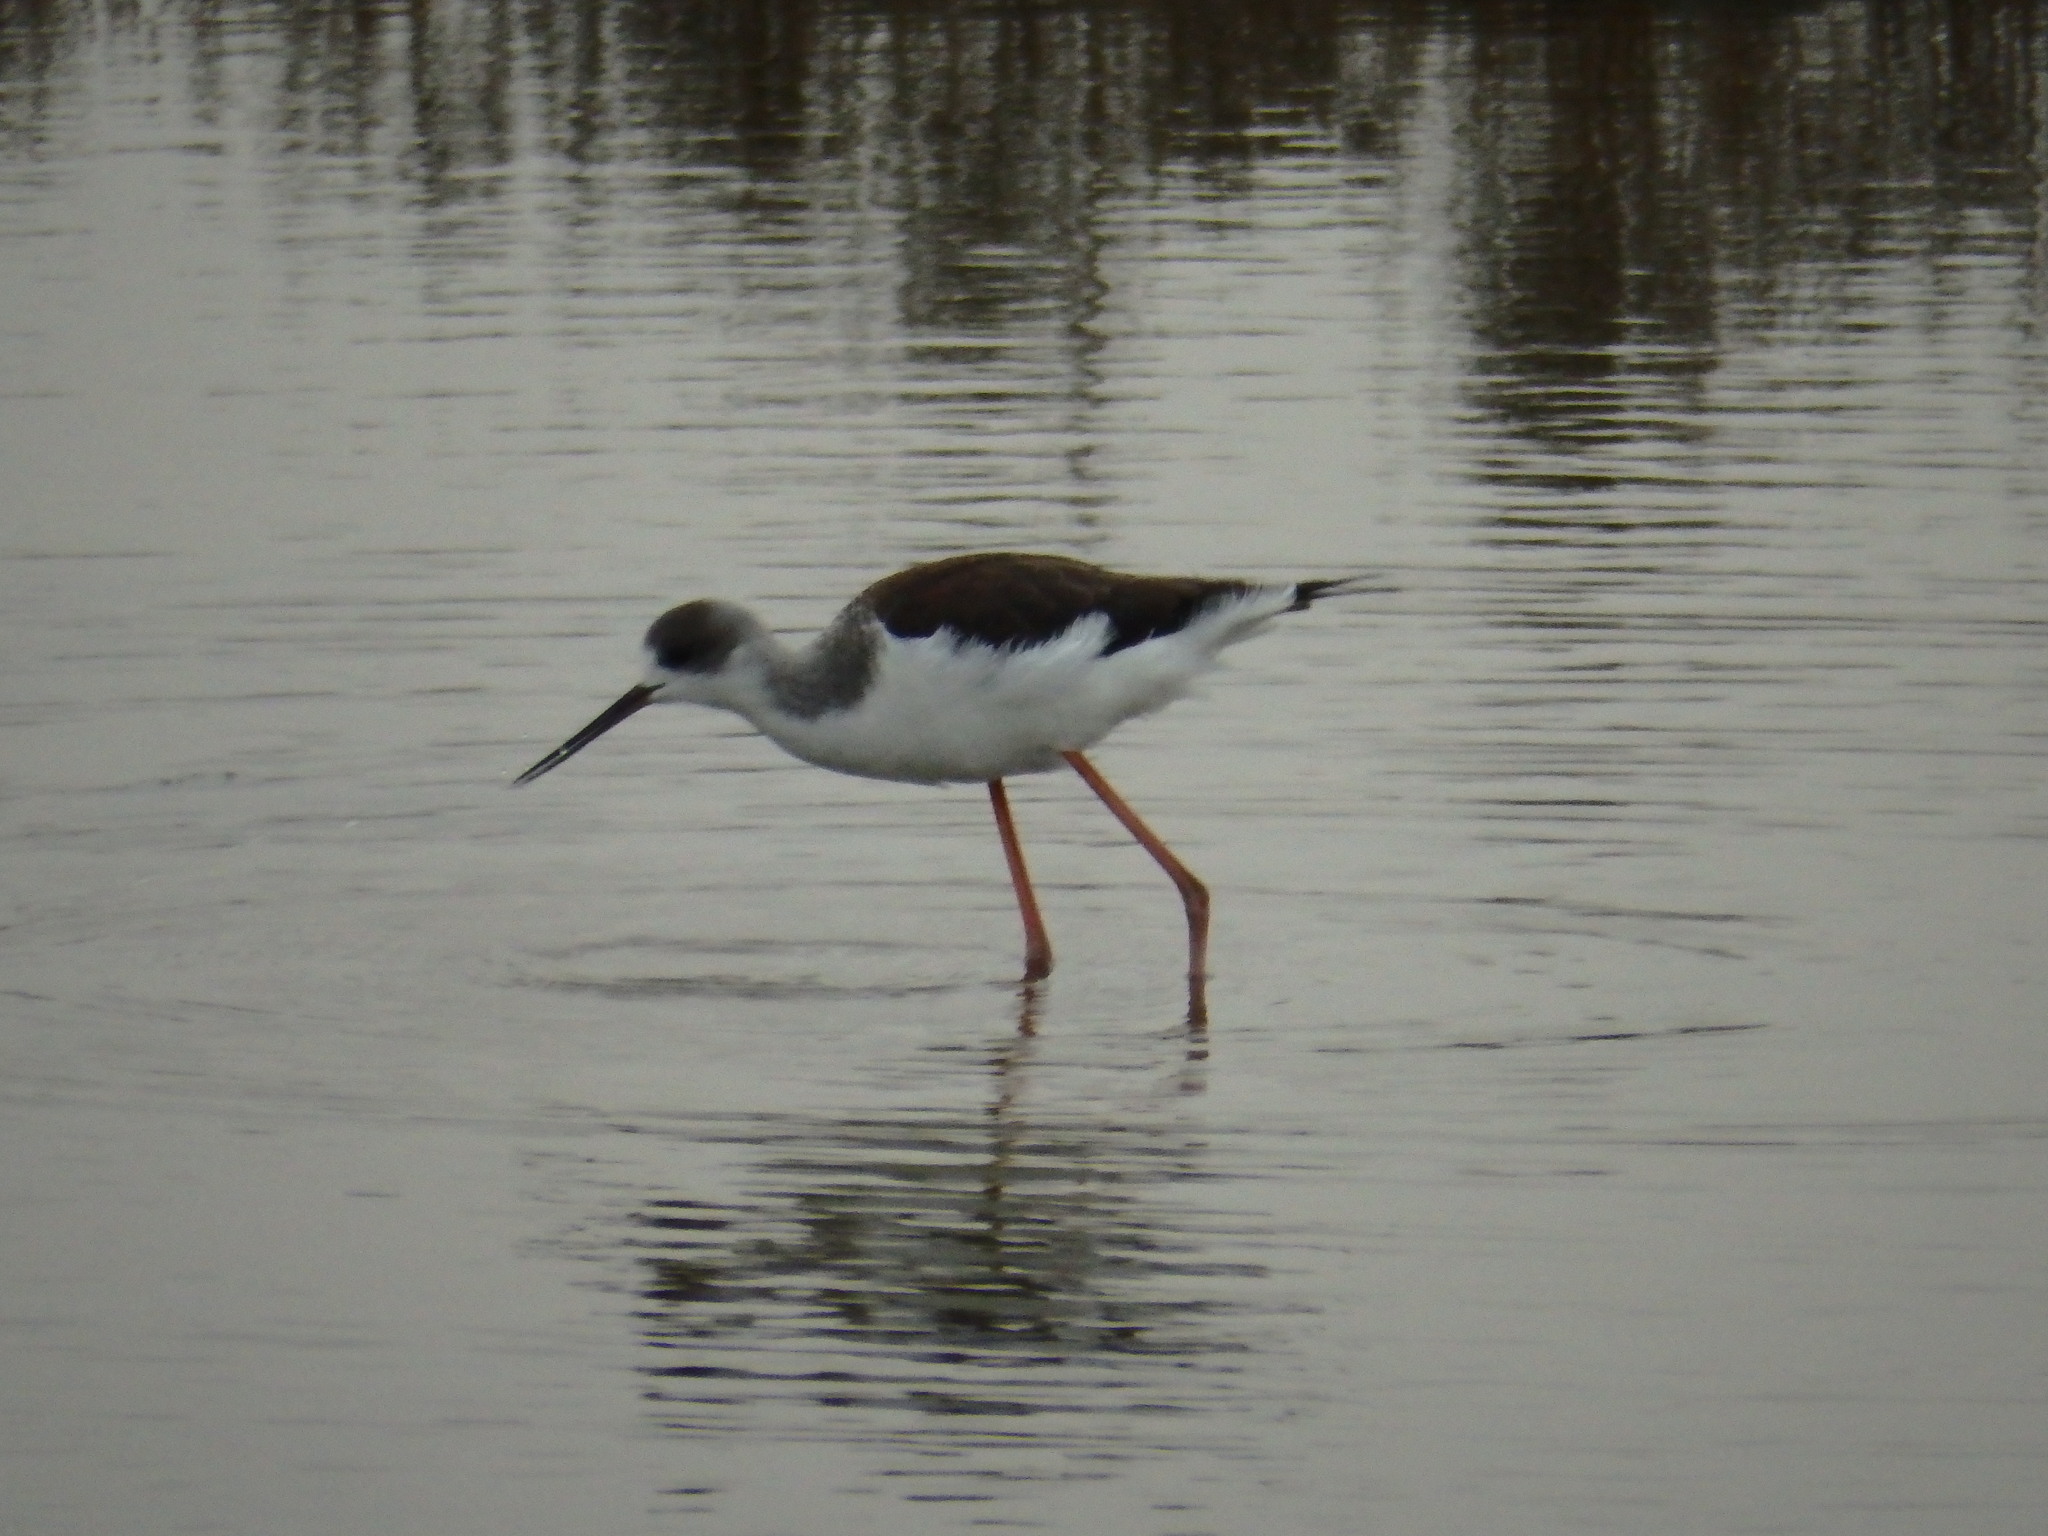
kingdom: Animalia
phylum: Chordata
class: Aves
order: Charadriiformes
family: Recurvirostridae
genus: Himantopus
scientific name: Himantopus himantopus
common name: Black-winged stilt
